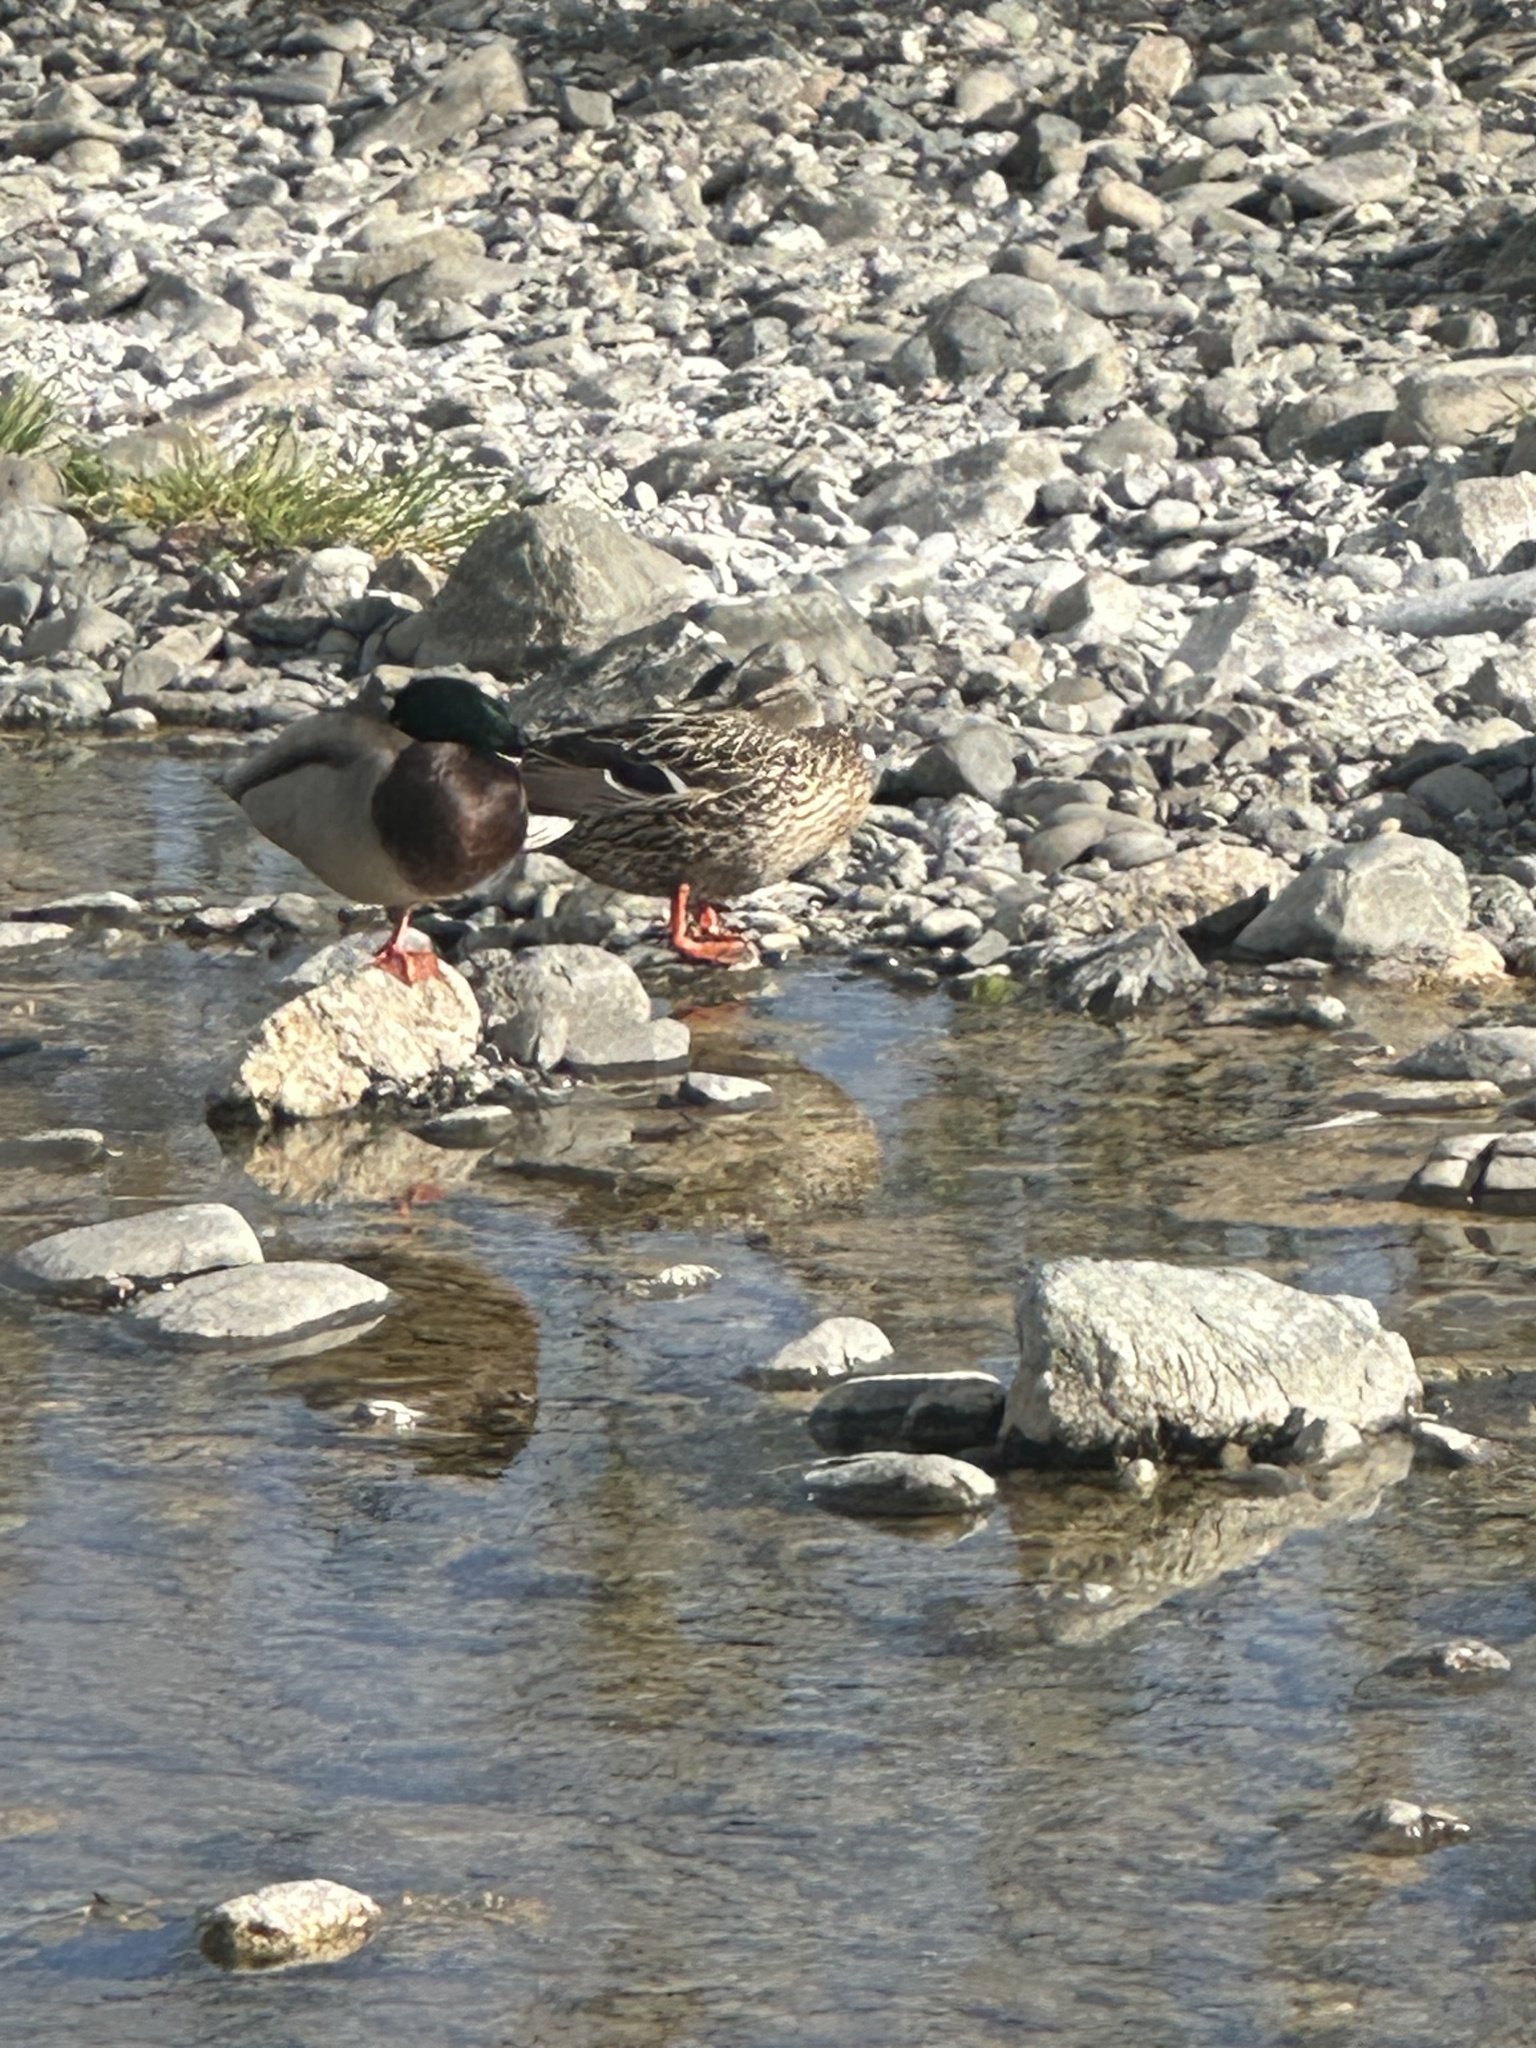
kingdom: Animalia
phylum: Chordata
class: Aves
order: Anseriformes
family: Anatidae
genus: Anas
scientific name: Anas platyrhynchos
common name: Mallard
